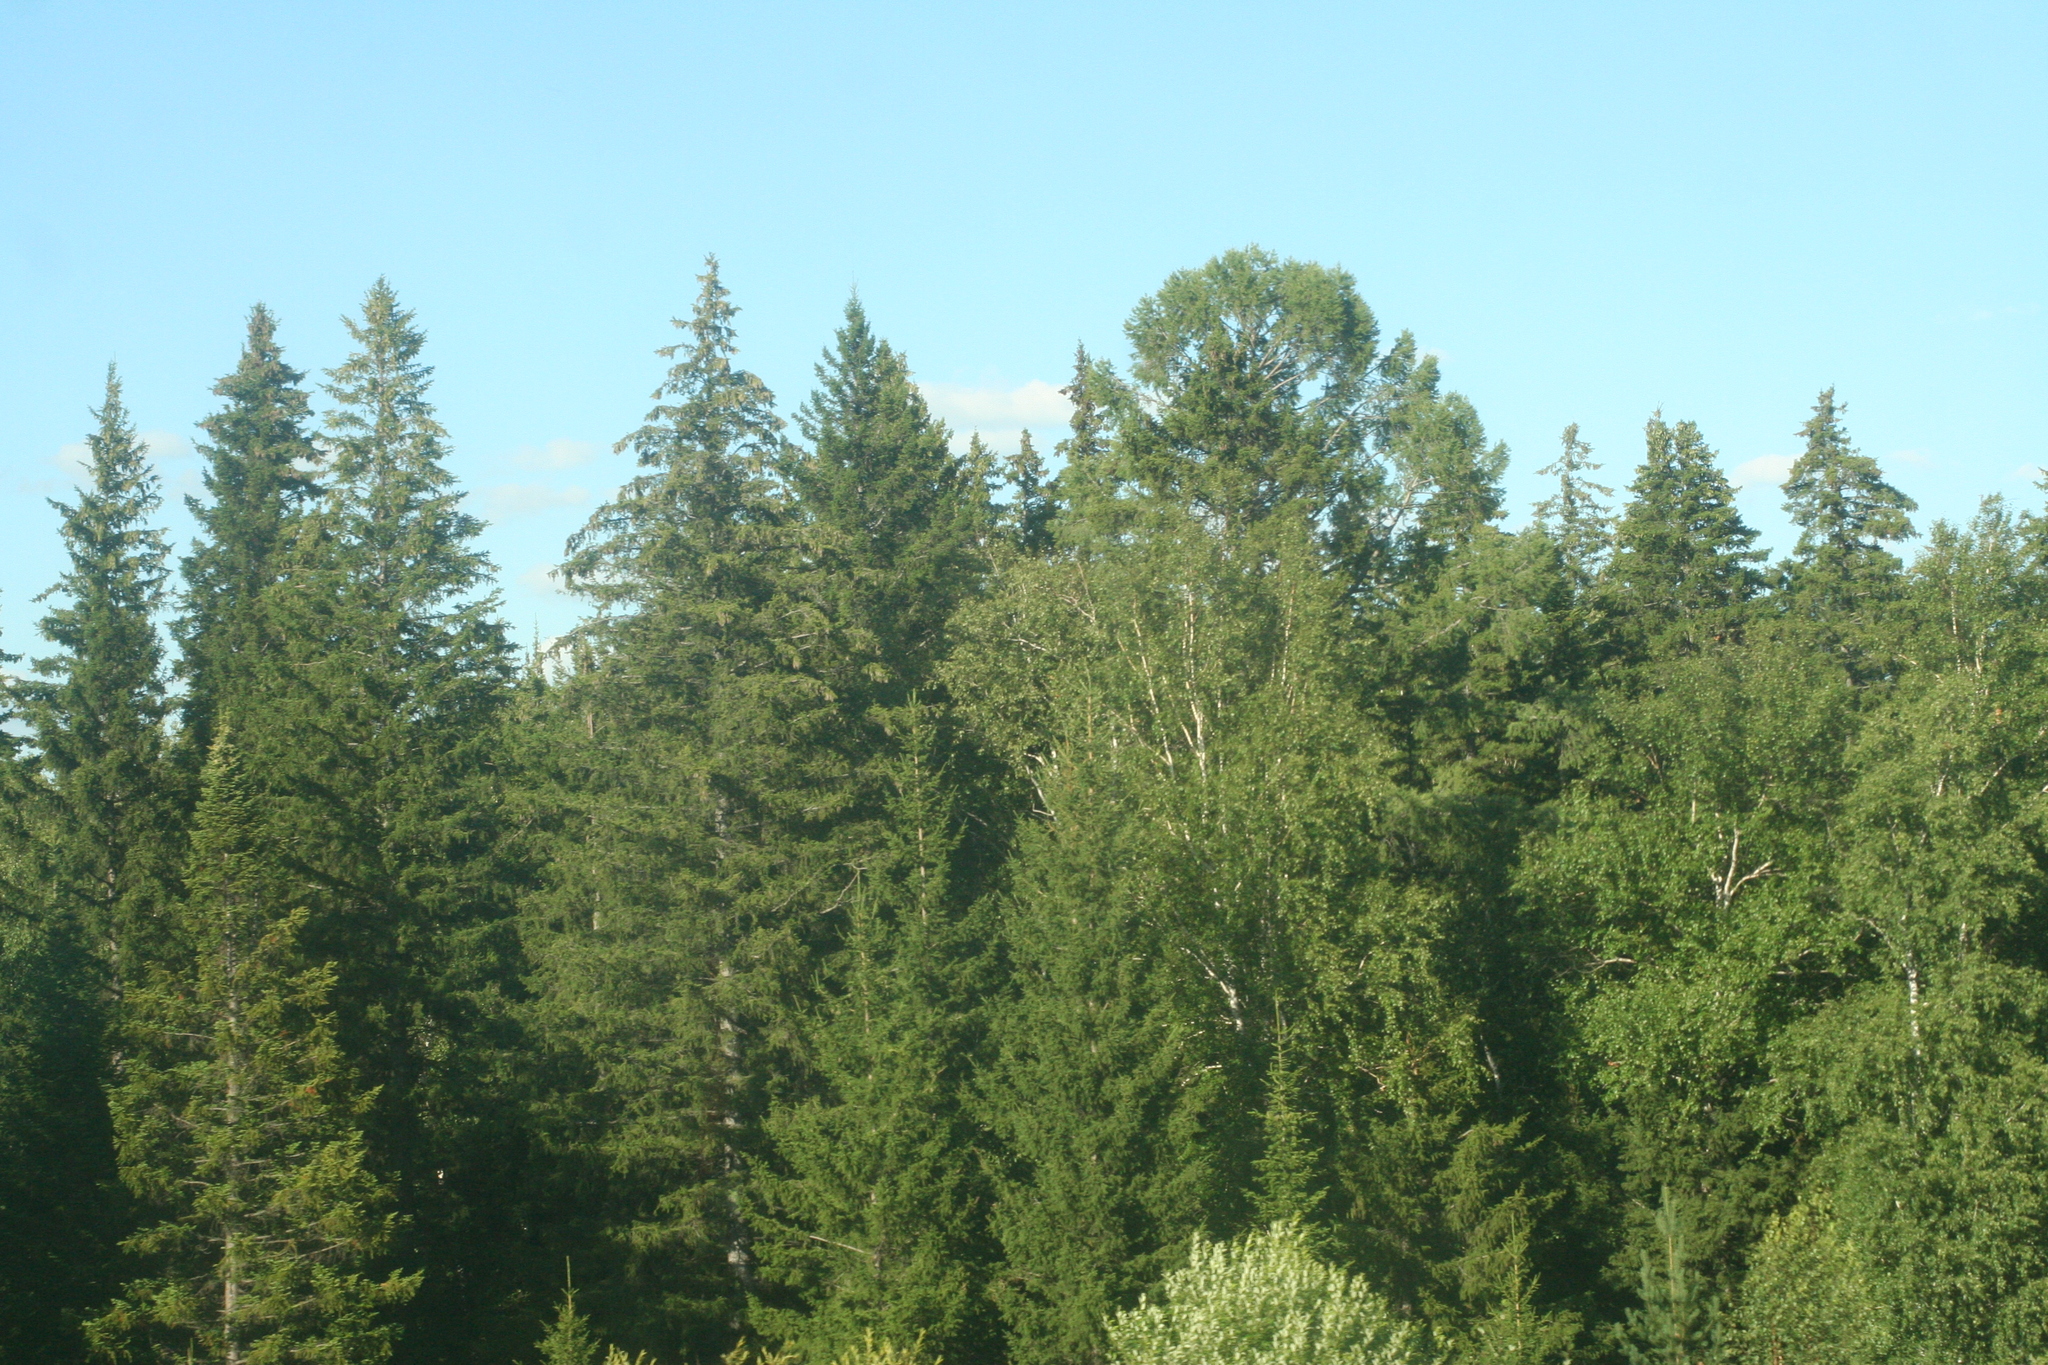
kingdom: Plantae
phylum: Tracheophyta
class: Pinopsida
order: Pinales
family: Pinaceae
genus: Larix
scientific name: Larix sibirica
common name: Siberian larch
